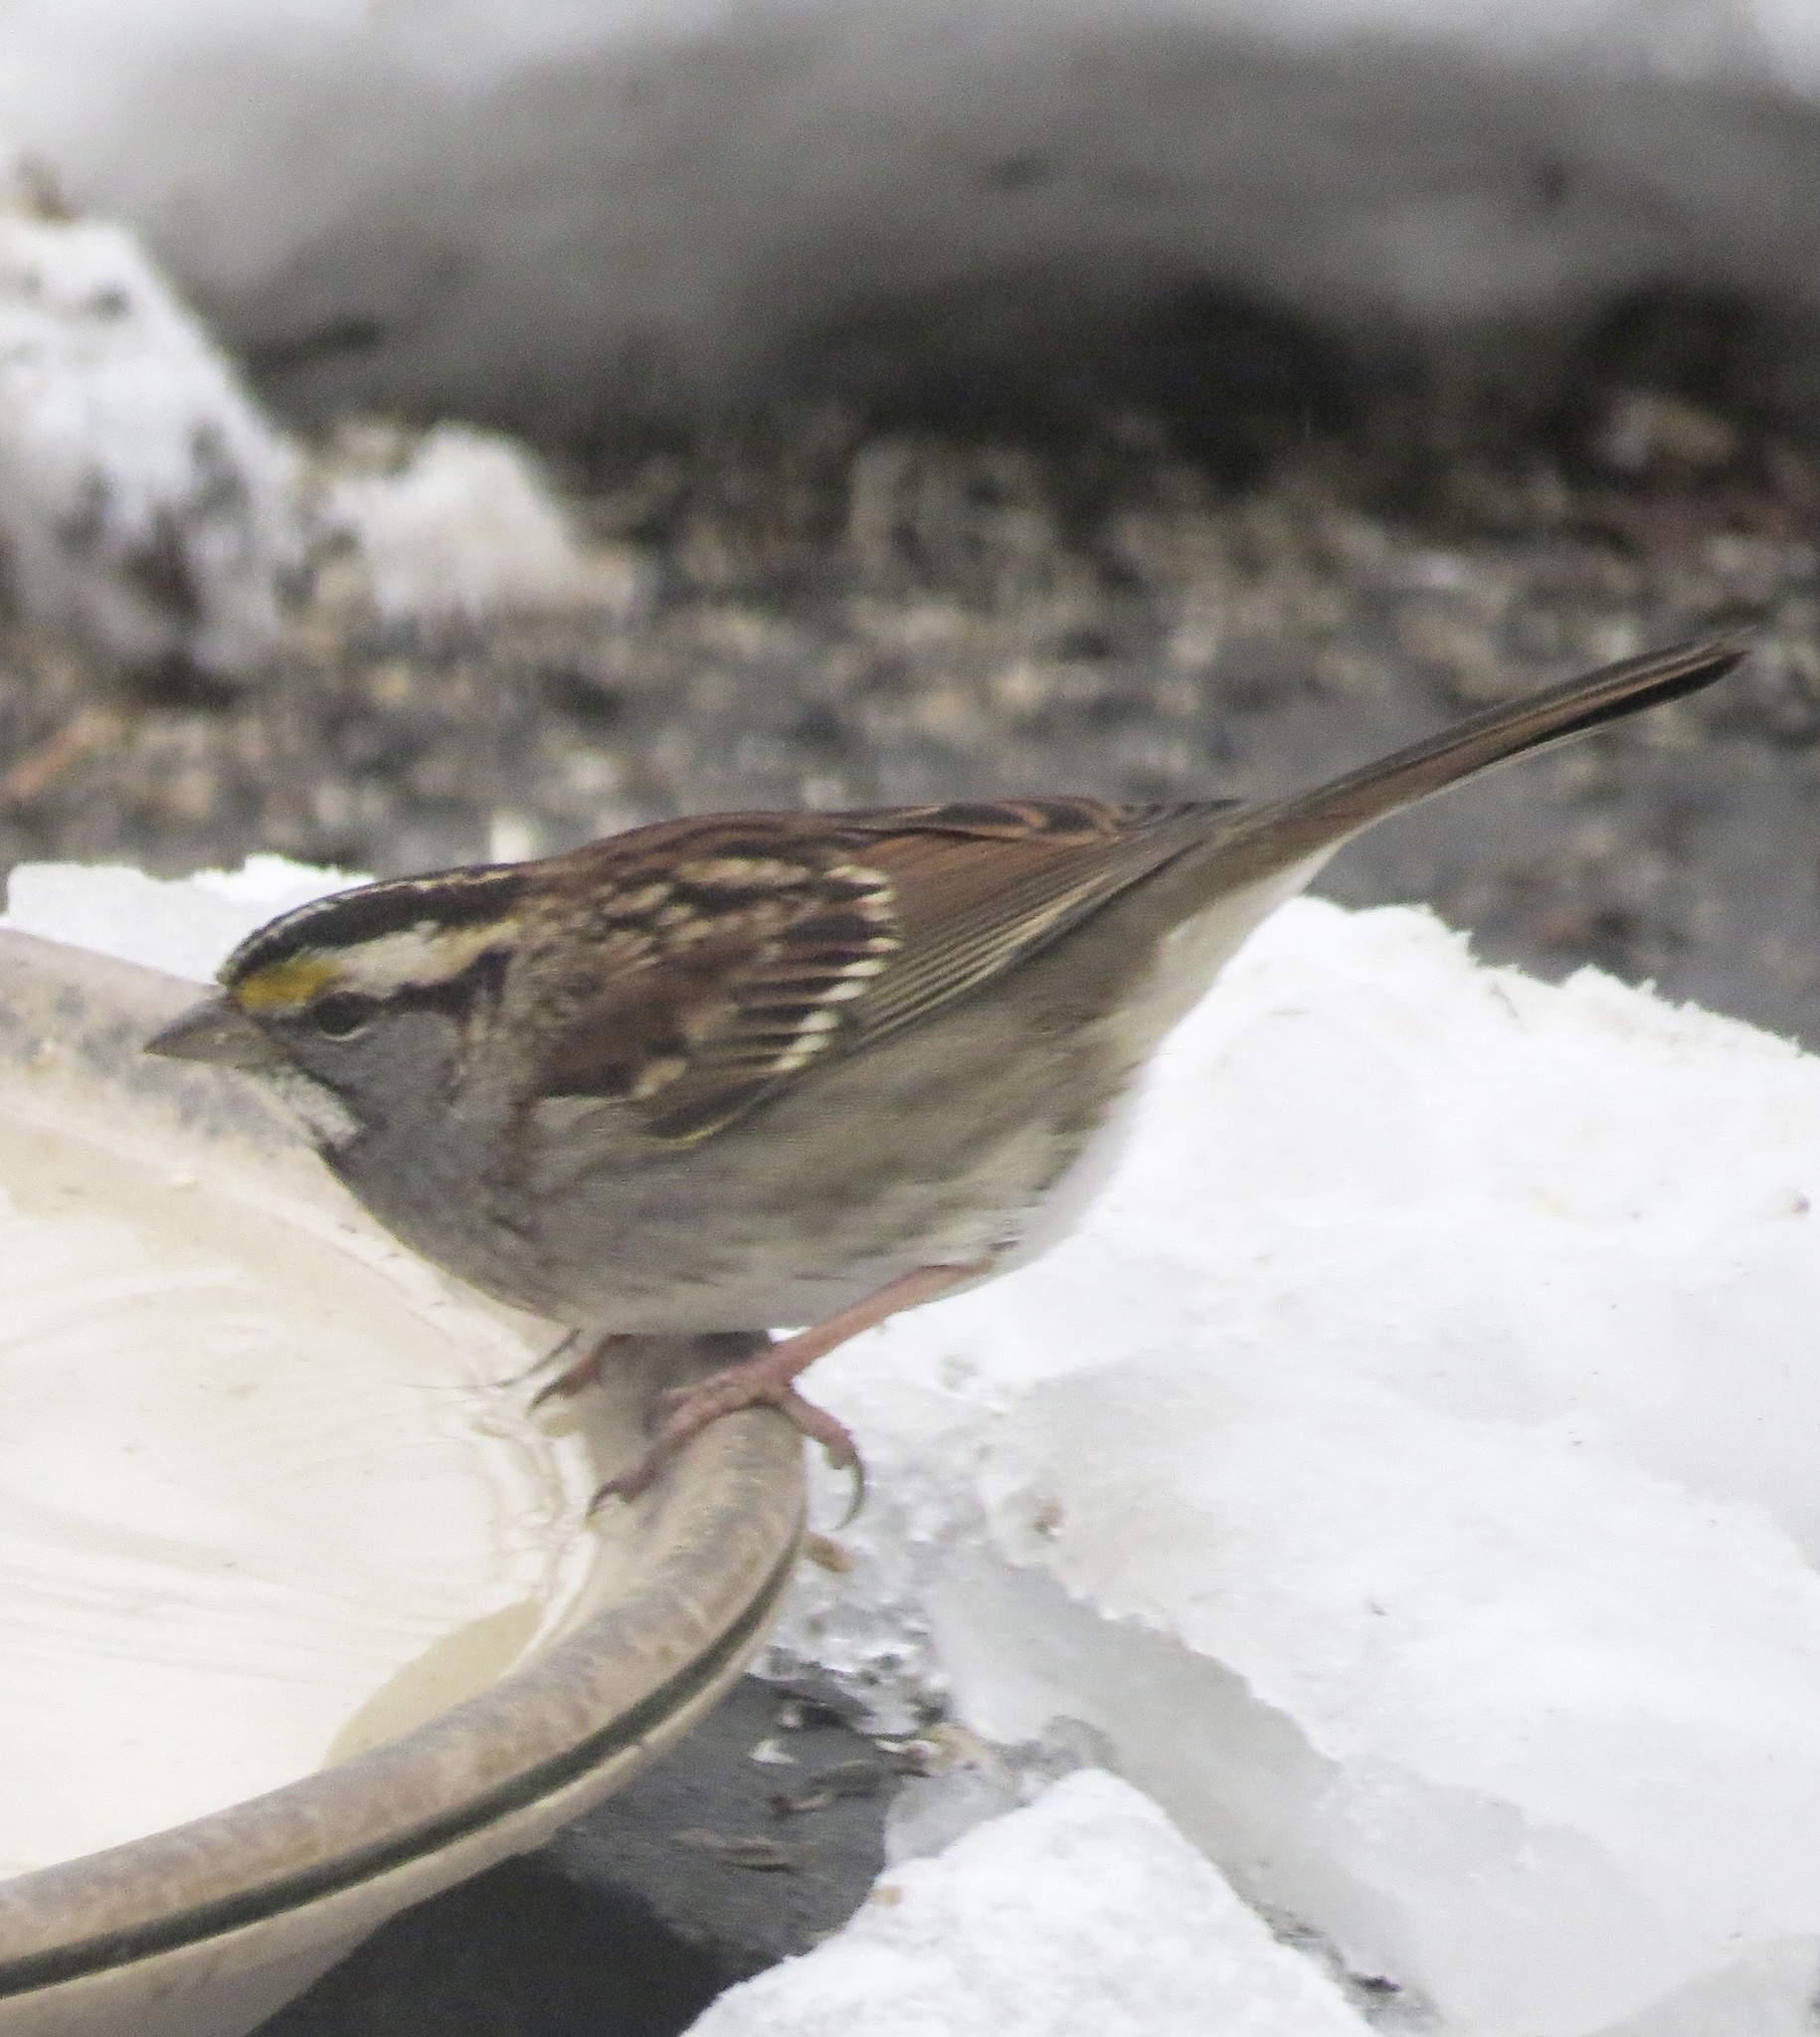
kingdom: Animalia
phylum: Chordata
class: Aves
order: Passeriformes
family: Passerellidae
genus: Zonotrichia
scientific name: Zonotrichia albicollis
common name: White-throated sparrow
